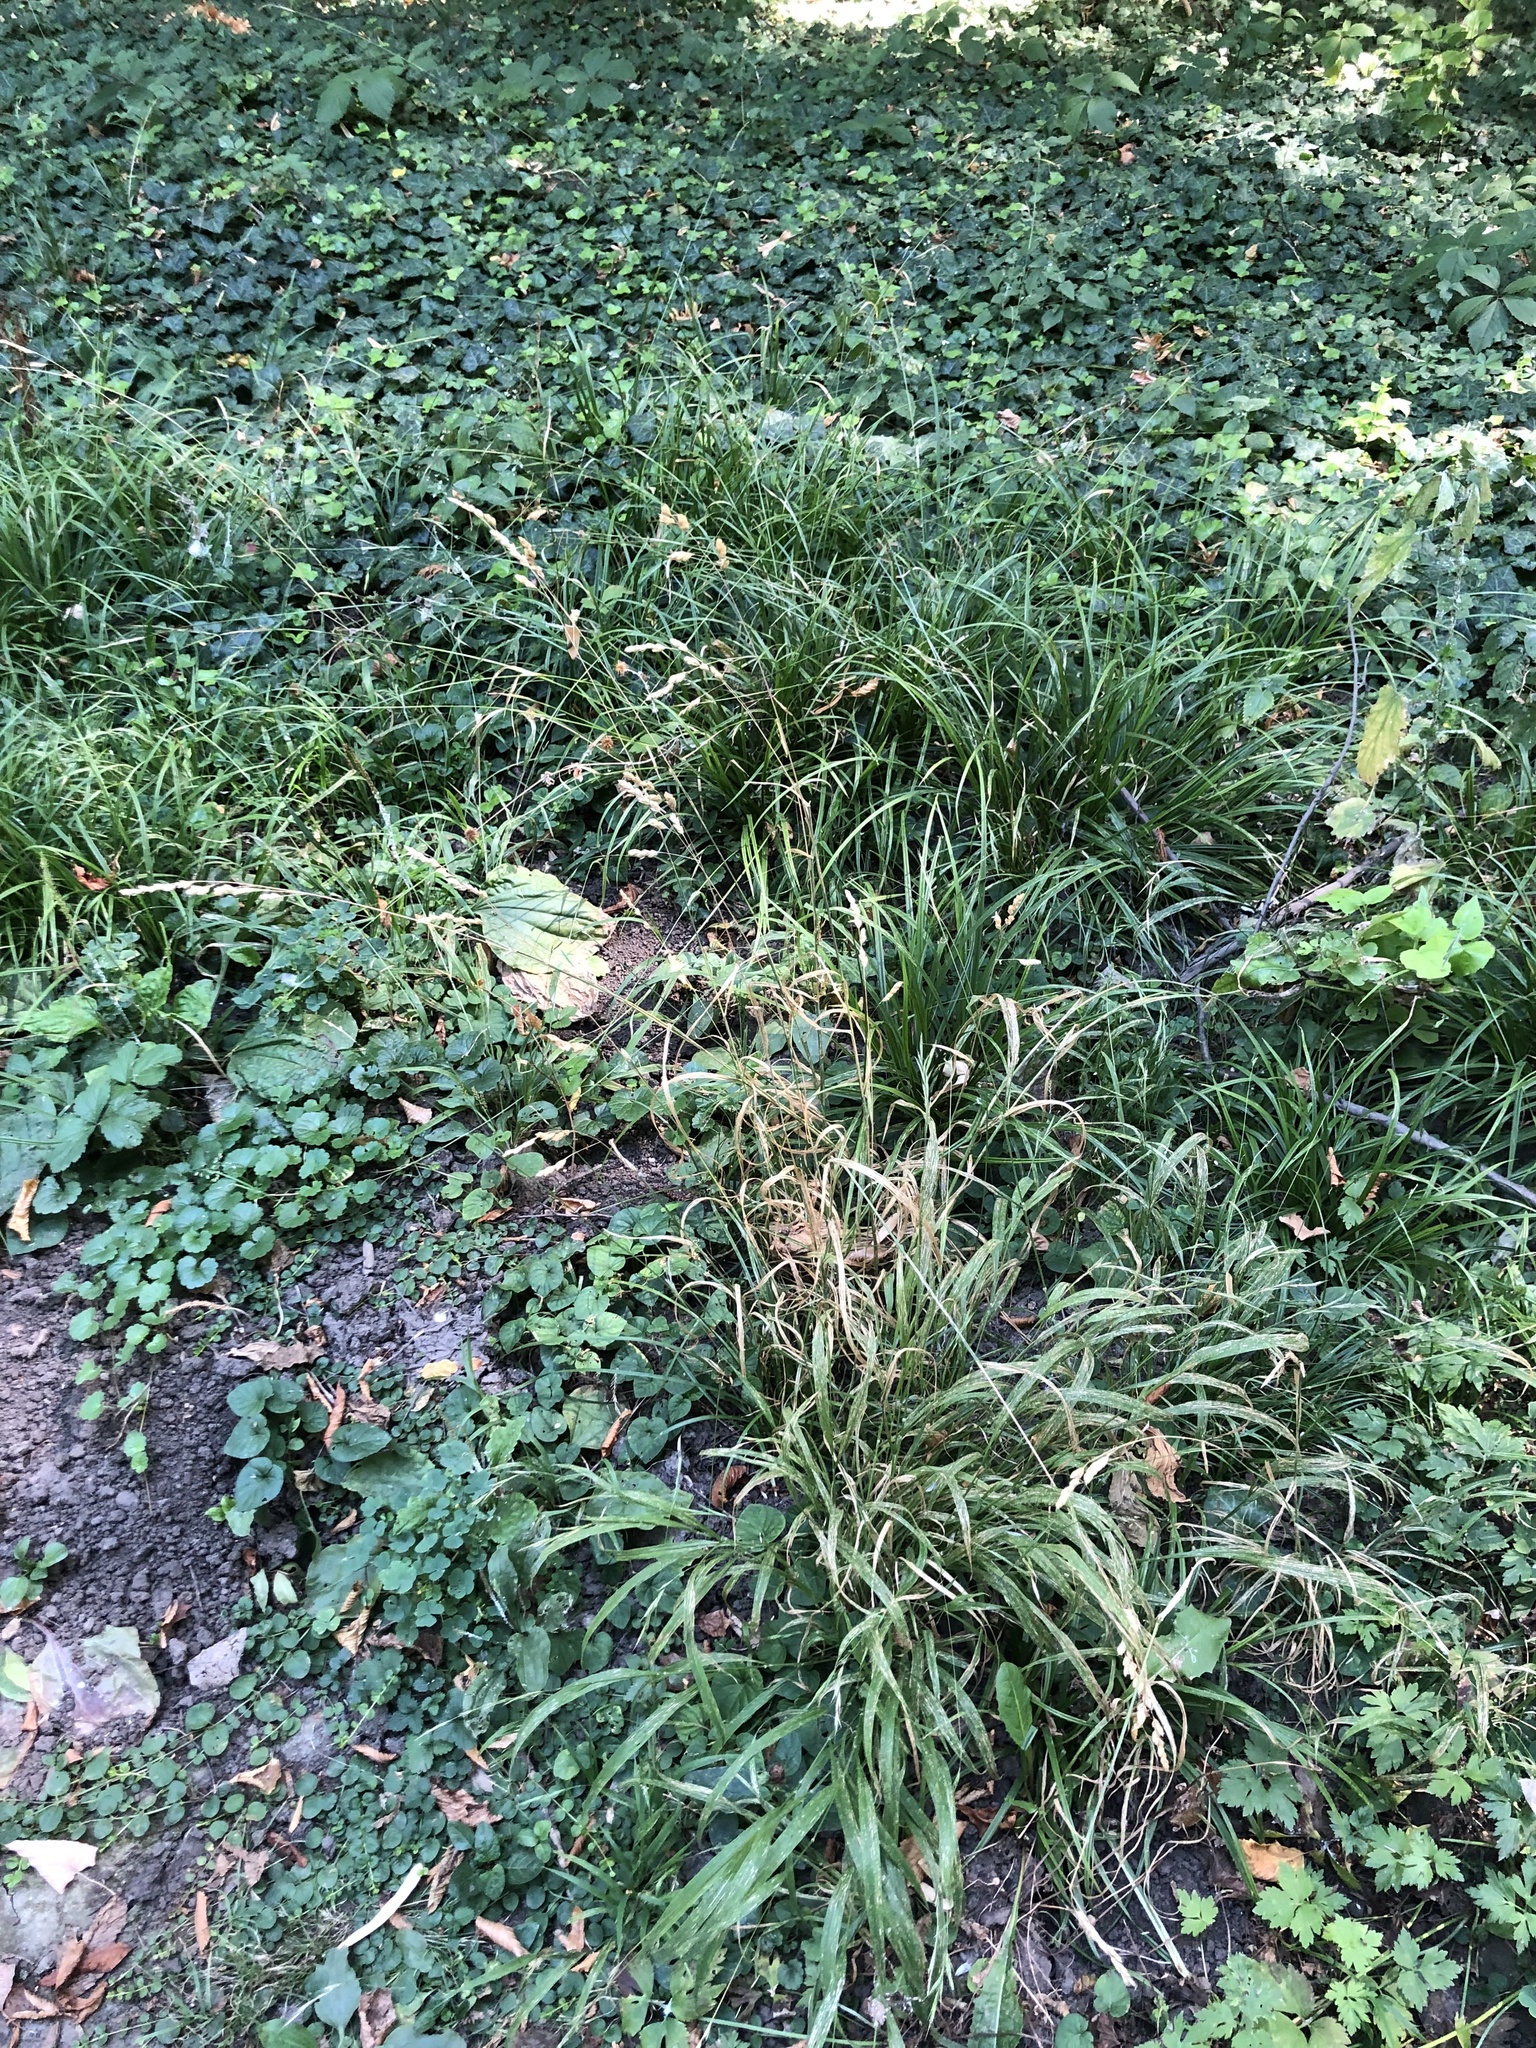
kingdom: Plantae
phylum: Tracheophyta
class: Liliopsida
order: Poales
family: Poaceae
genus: Dactylis
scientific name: Dactylis glomerata
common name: Orchardgrass
